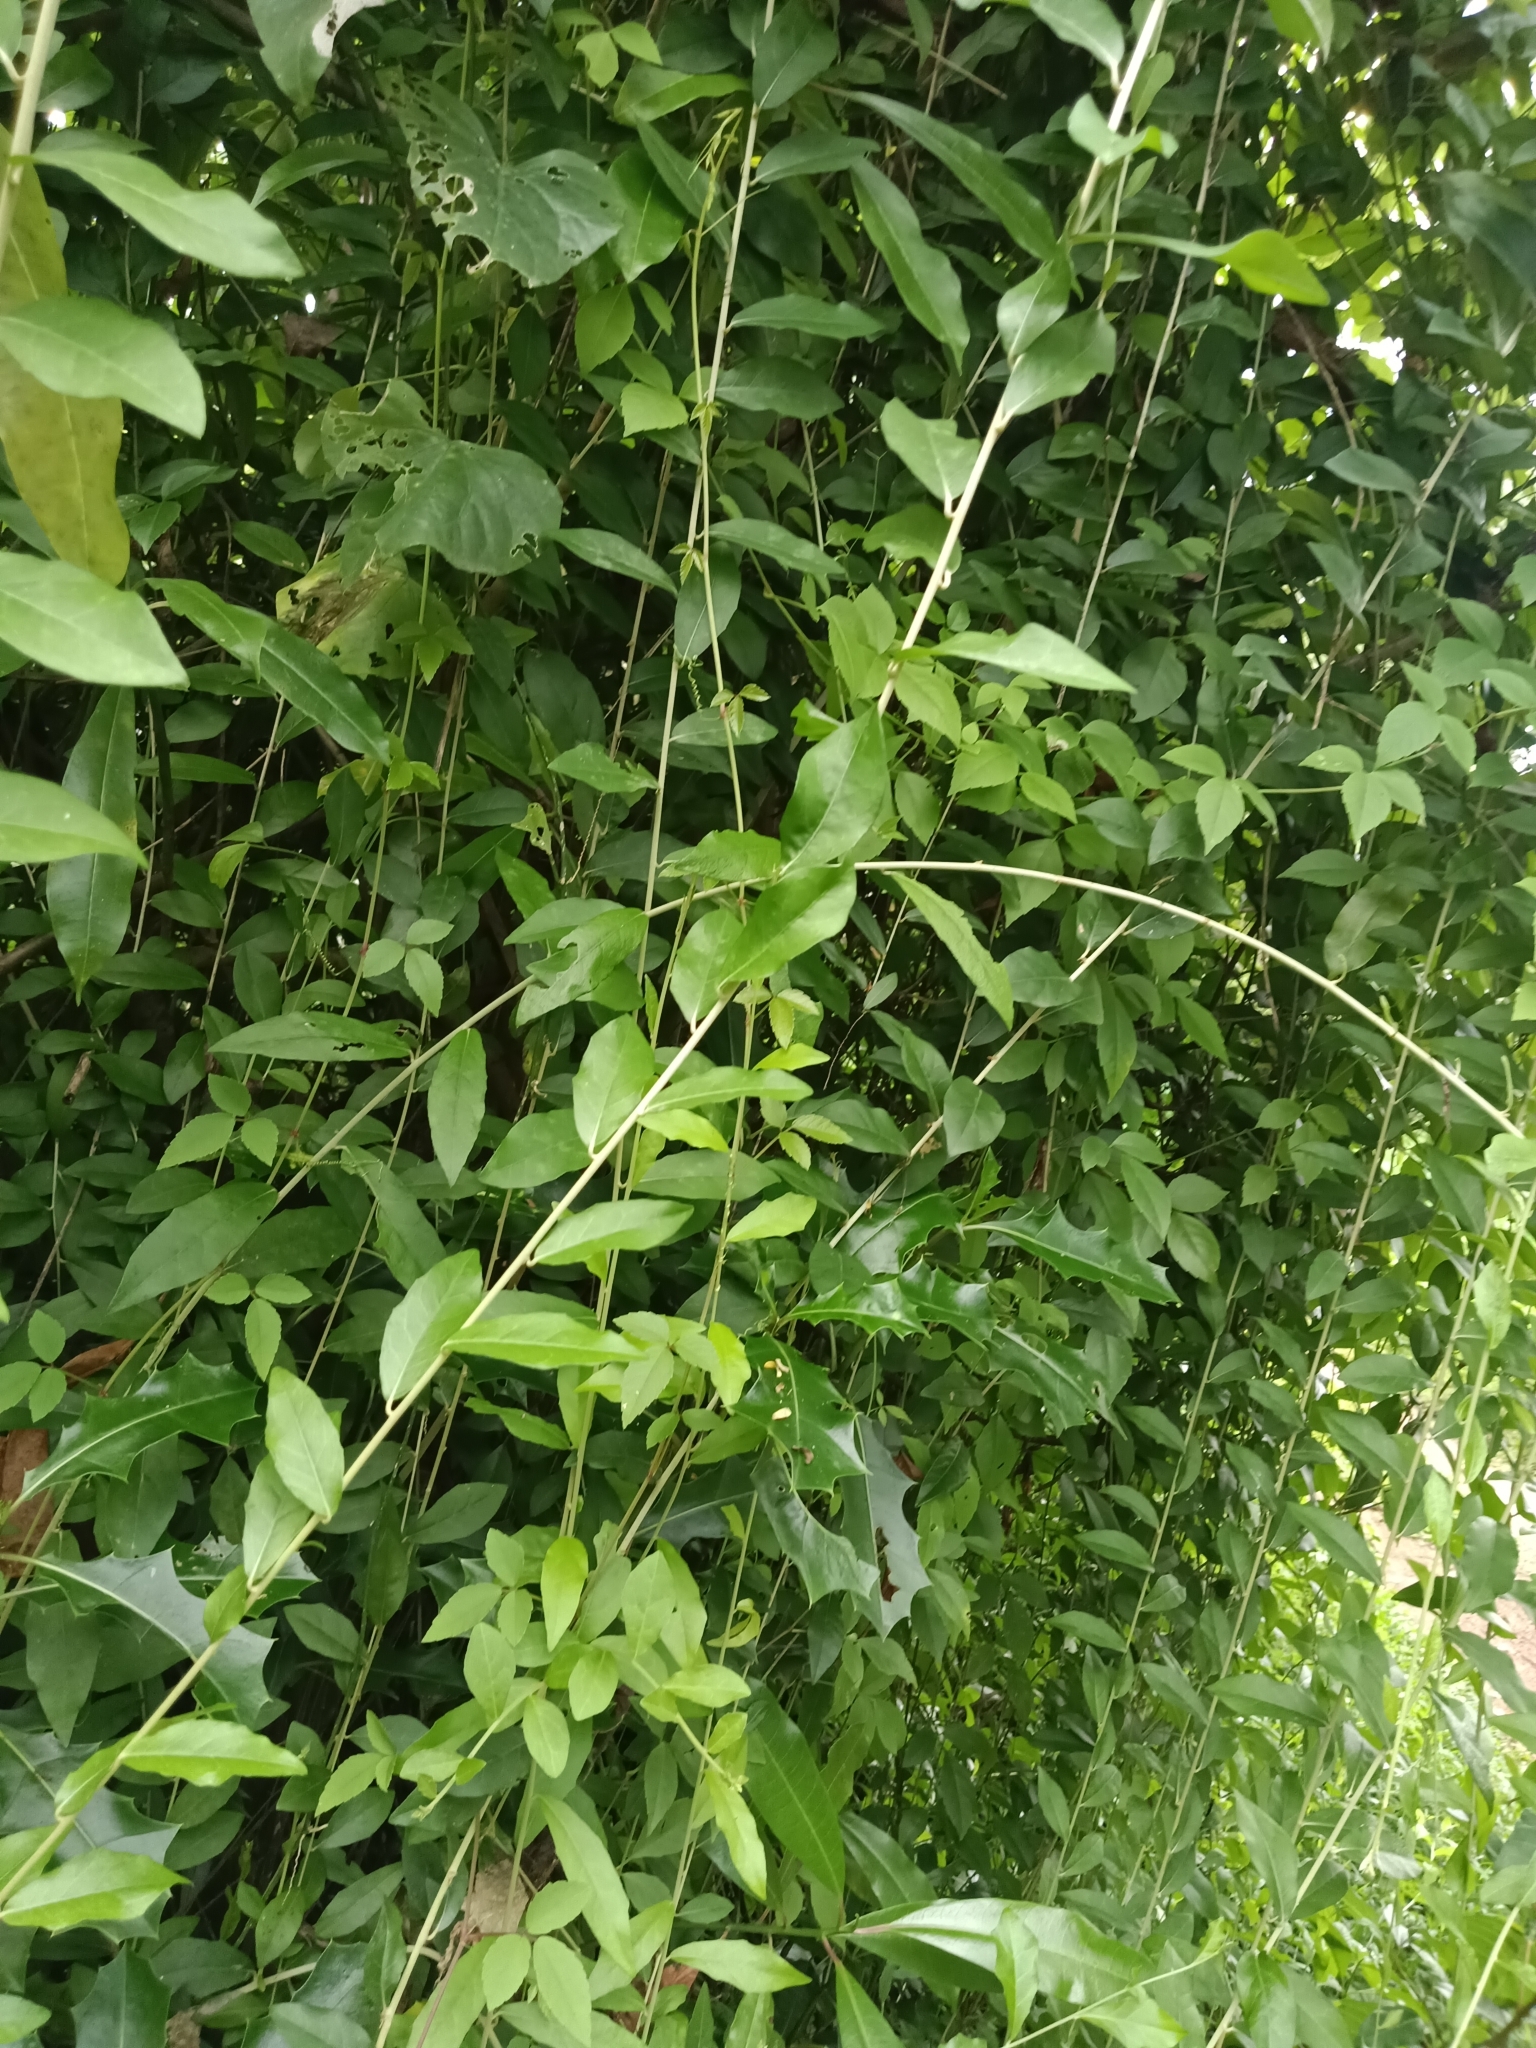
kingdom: Plantae
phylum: Tracheophyta
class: Magnoliopsida
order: Asterales
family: Asteraceae
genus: Tarlmounia
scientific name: Tarlmounia elliptica
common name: Kheua sa lot
